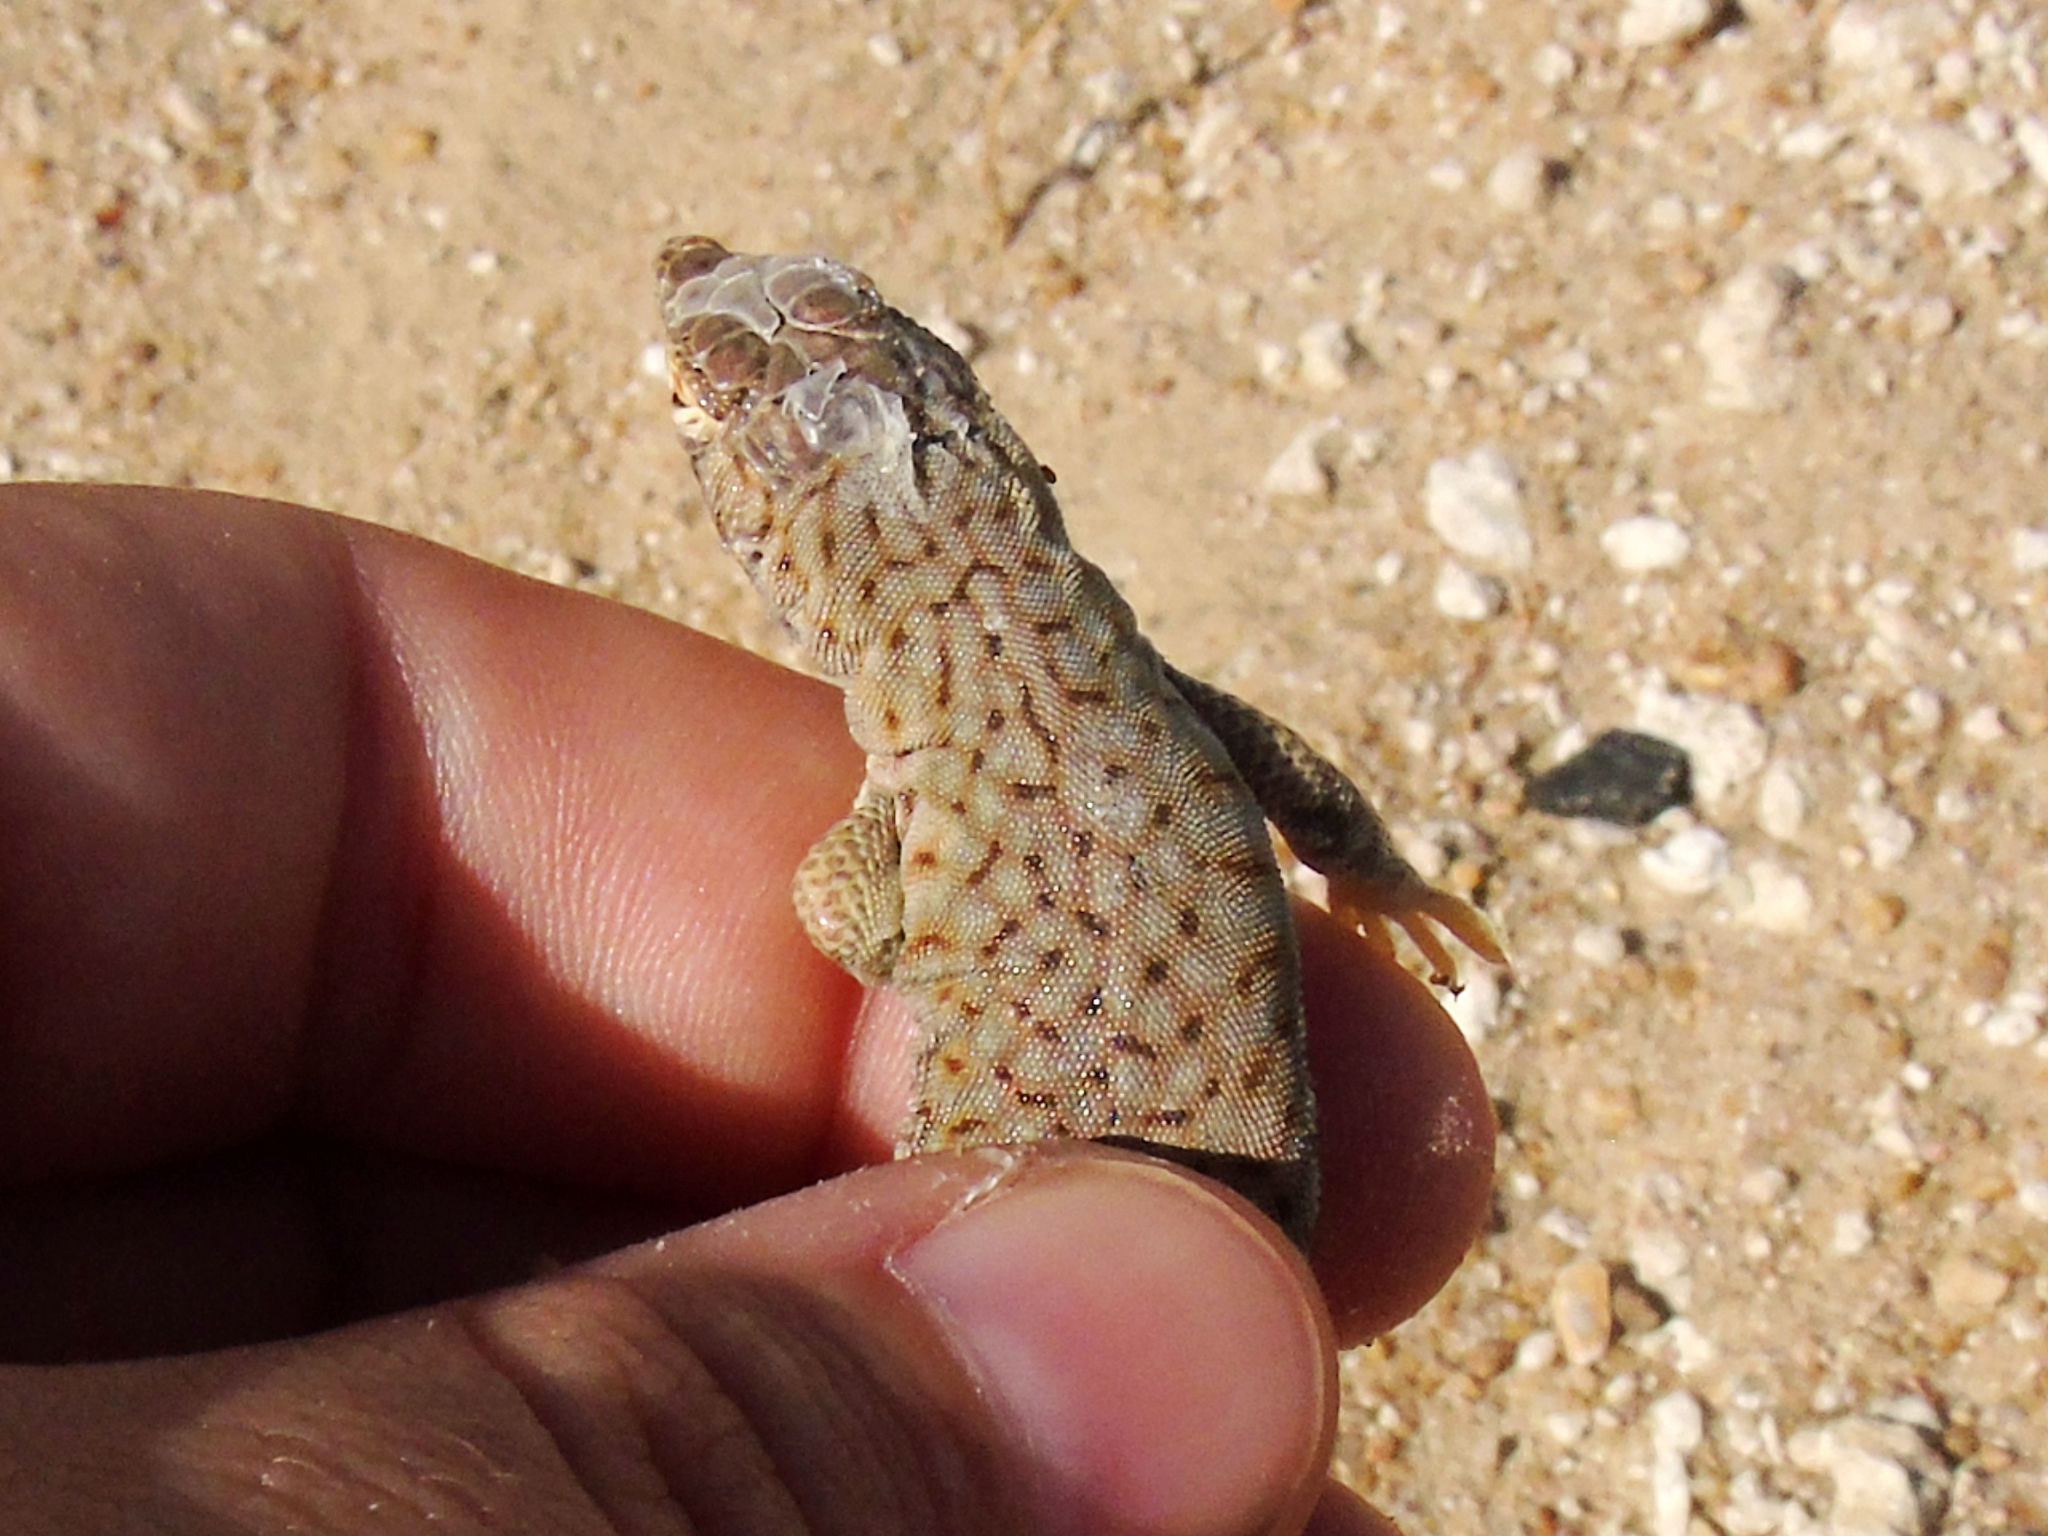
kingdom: Animalia
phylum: Chordata
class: Squamata
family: Lacertidae
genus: Acanthodactylus
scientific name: Acanthodactylus hardyi
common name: Hardy’s fringe-fingered lizard
